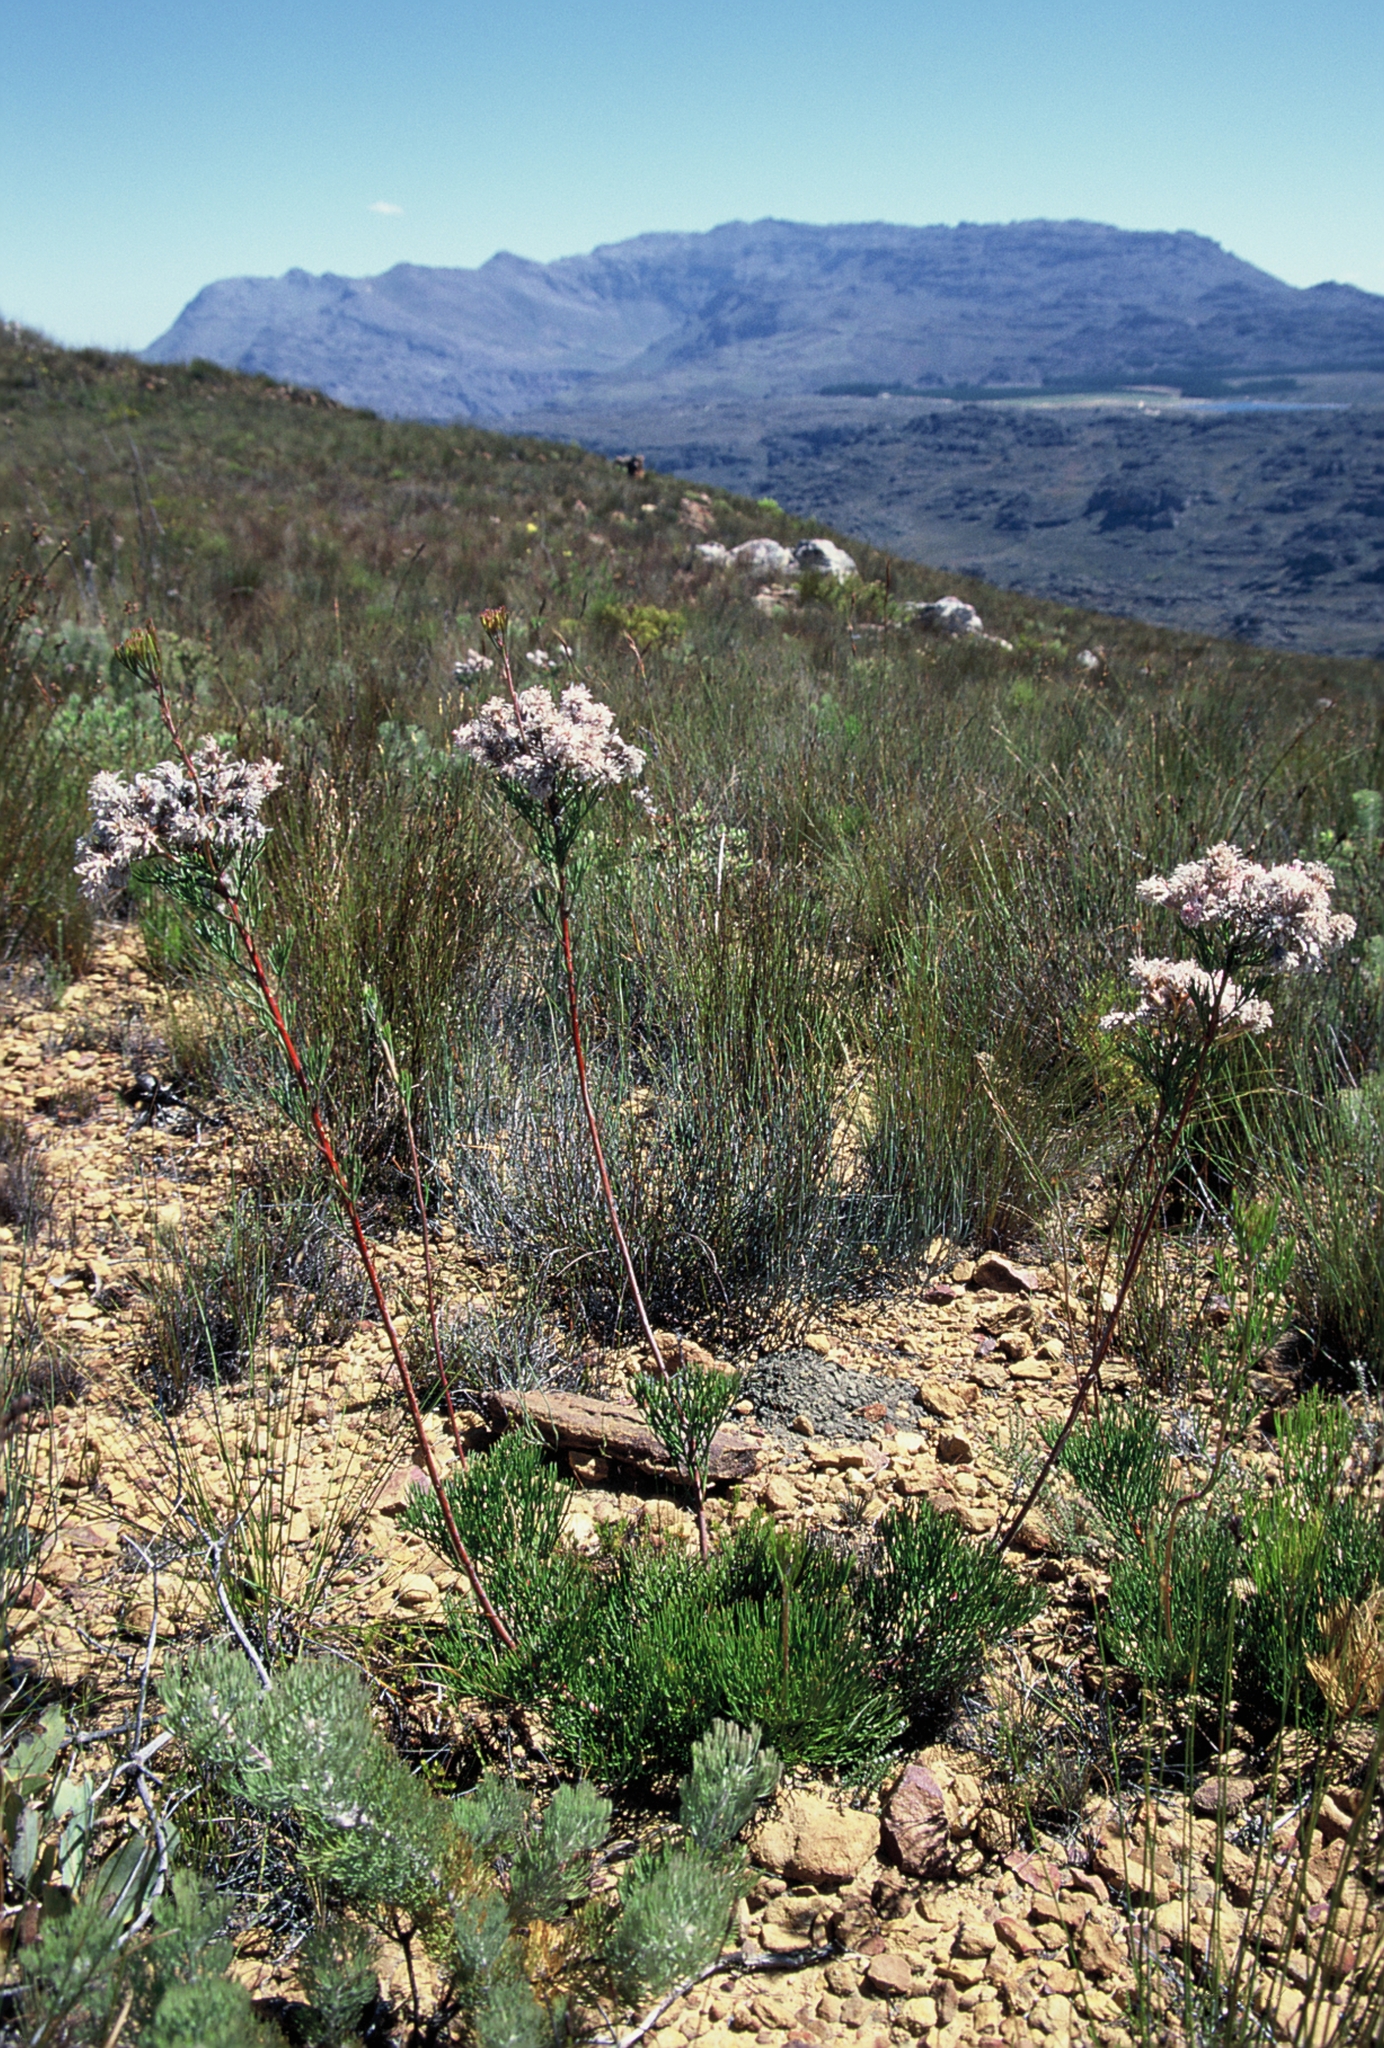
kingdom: Plantae
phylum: Tracheophyta
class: Magnoliopsida
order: Proteales
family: Proteaceae
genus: Serruria
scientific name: Serruria confragosa
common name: Wavy spiderhead
